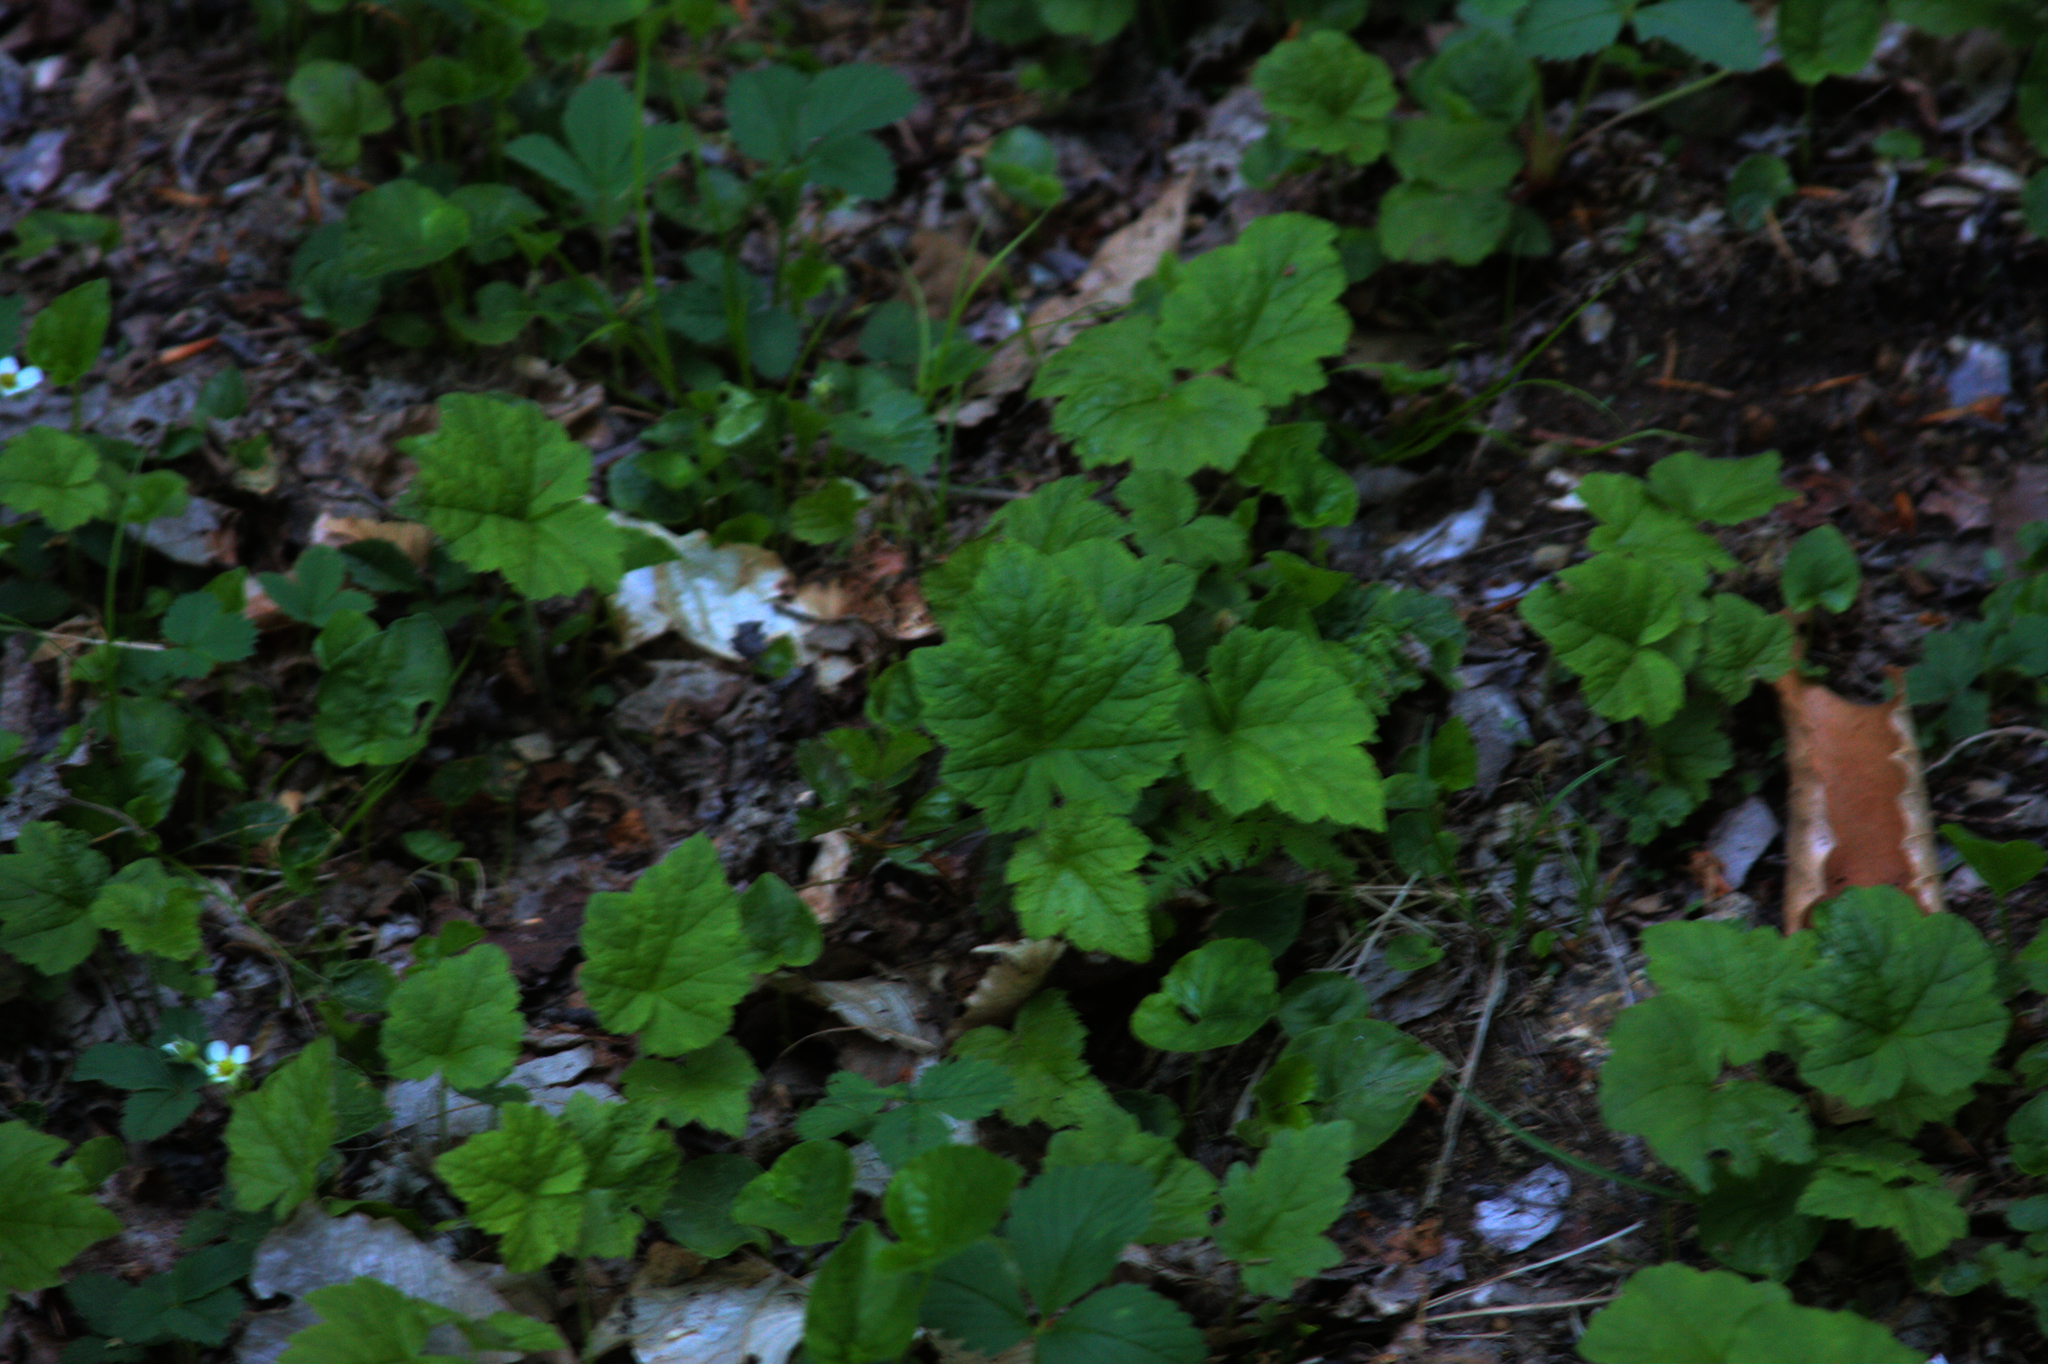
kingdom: Plantae
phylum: Tracheophyta
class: Magnoliopsida
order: Saxifragales
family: Saxifragaceae
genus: Tiarella
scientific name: Tiarella stolonifera
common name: Stoloniferous foamflower
